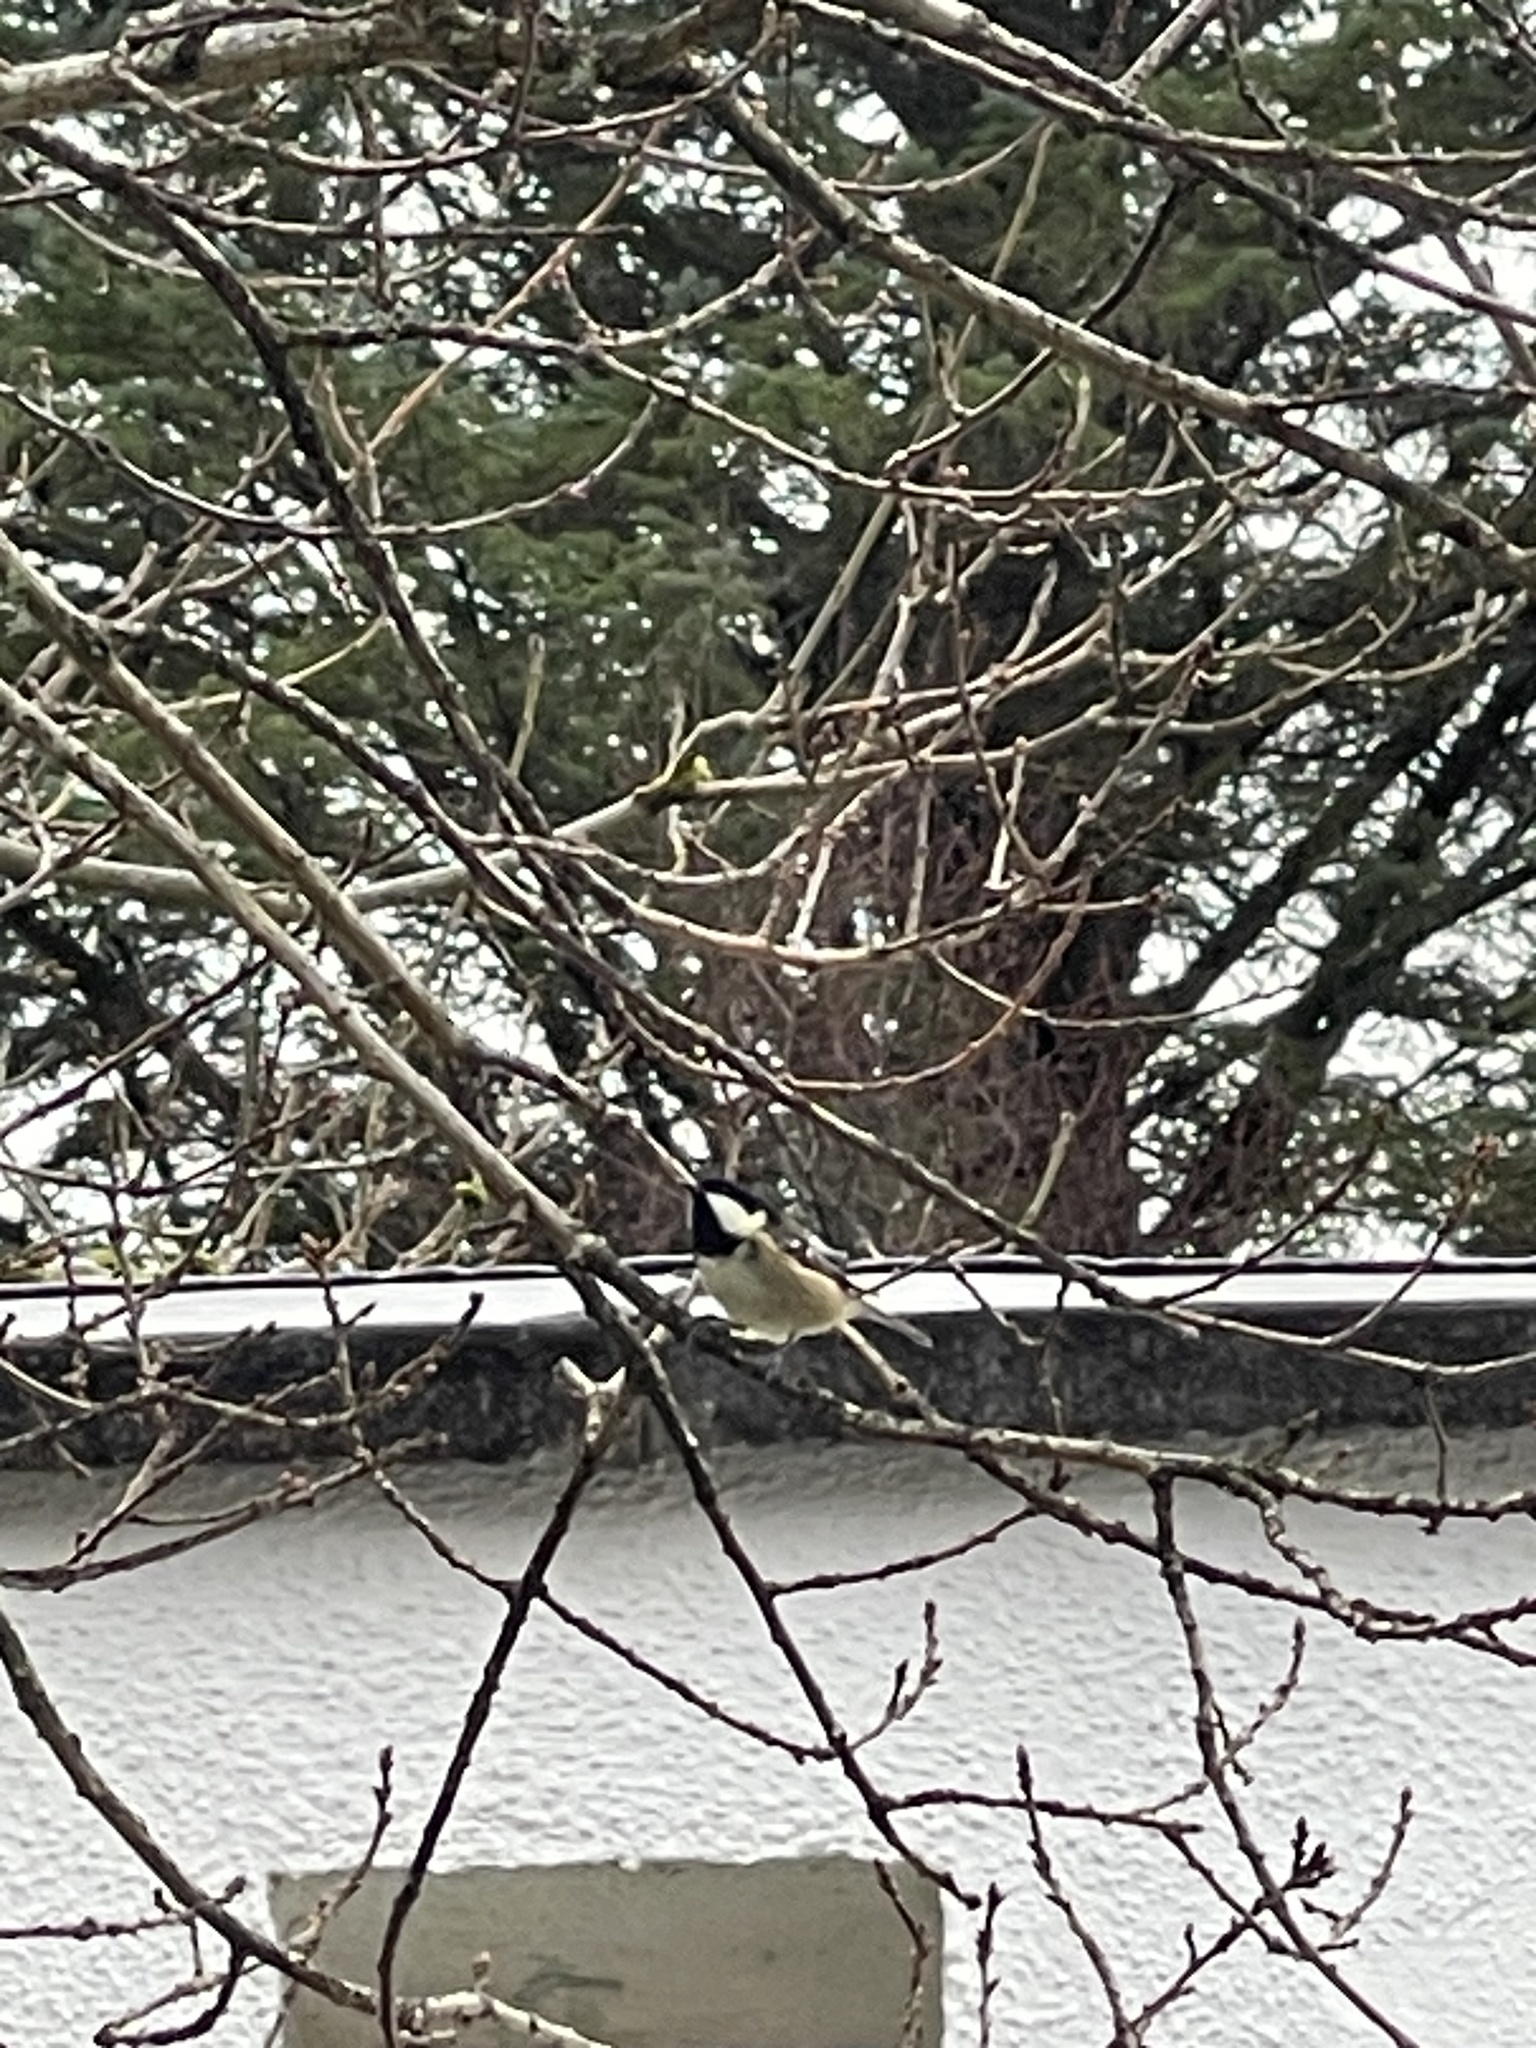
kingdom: Animalia
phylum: Chordata
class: Aves
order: Passeriformes
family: Paridae
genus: Periparus
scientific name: Periparus ater
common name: Coal tit
